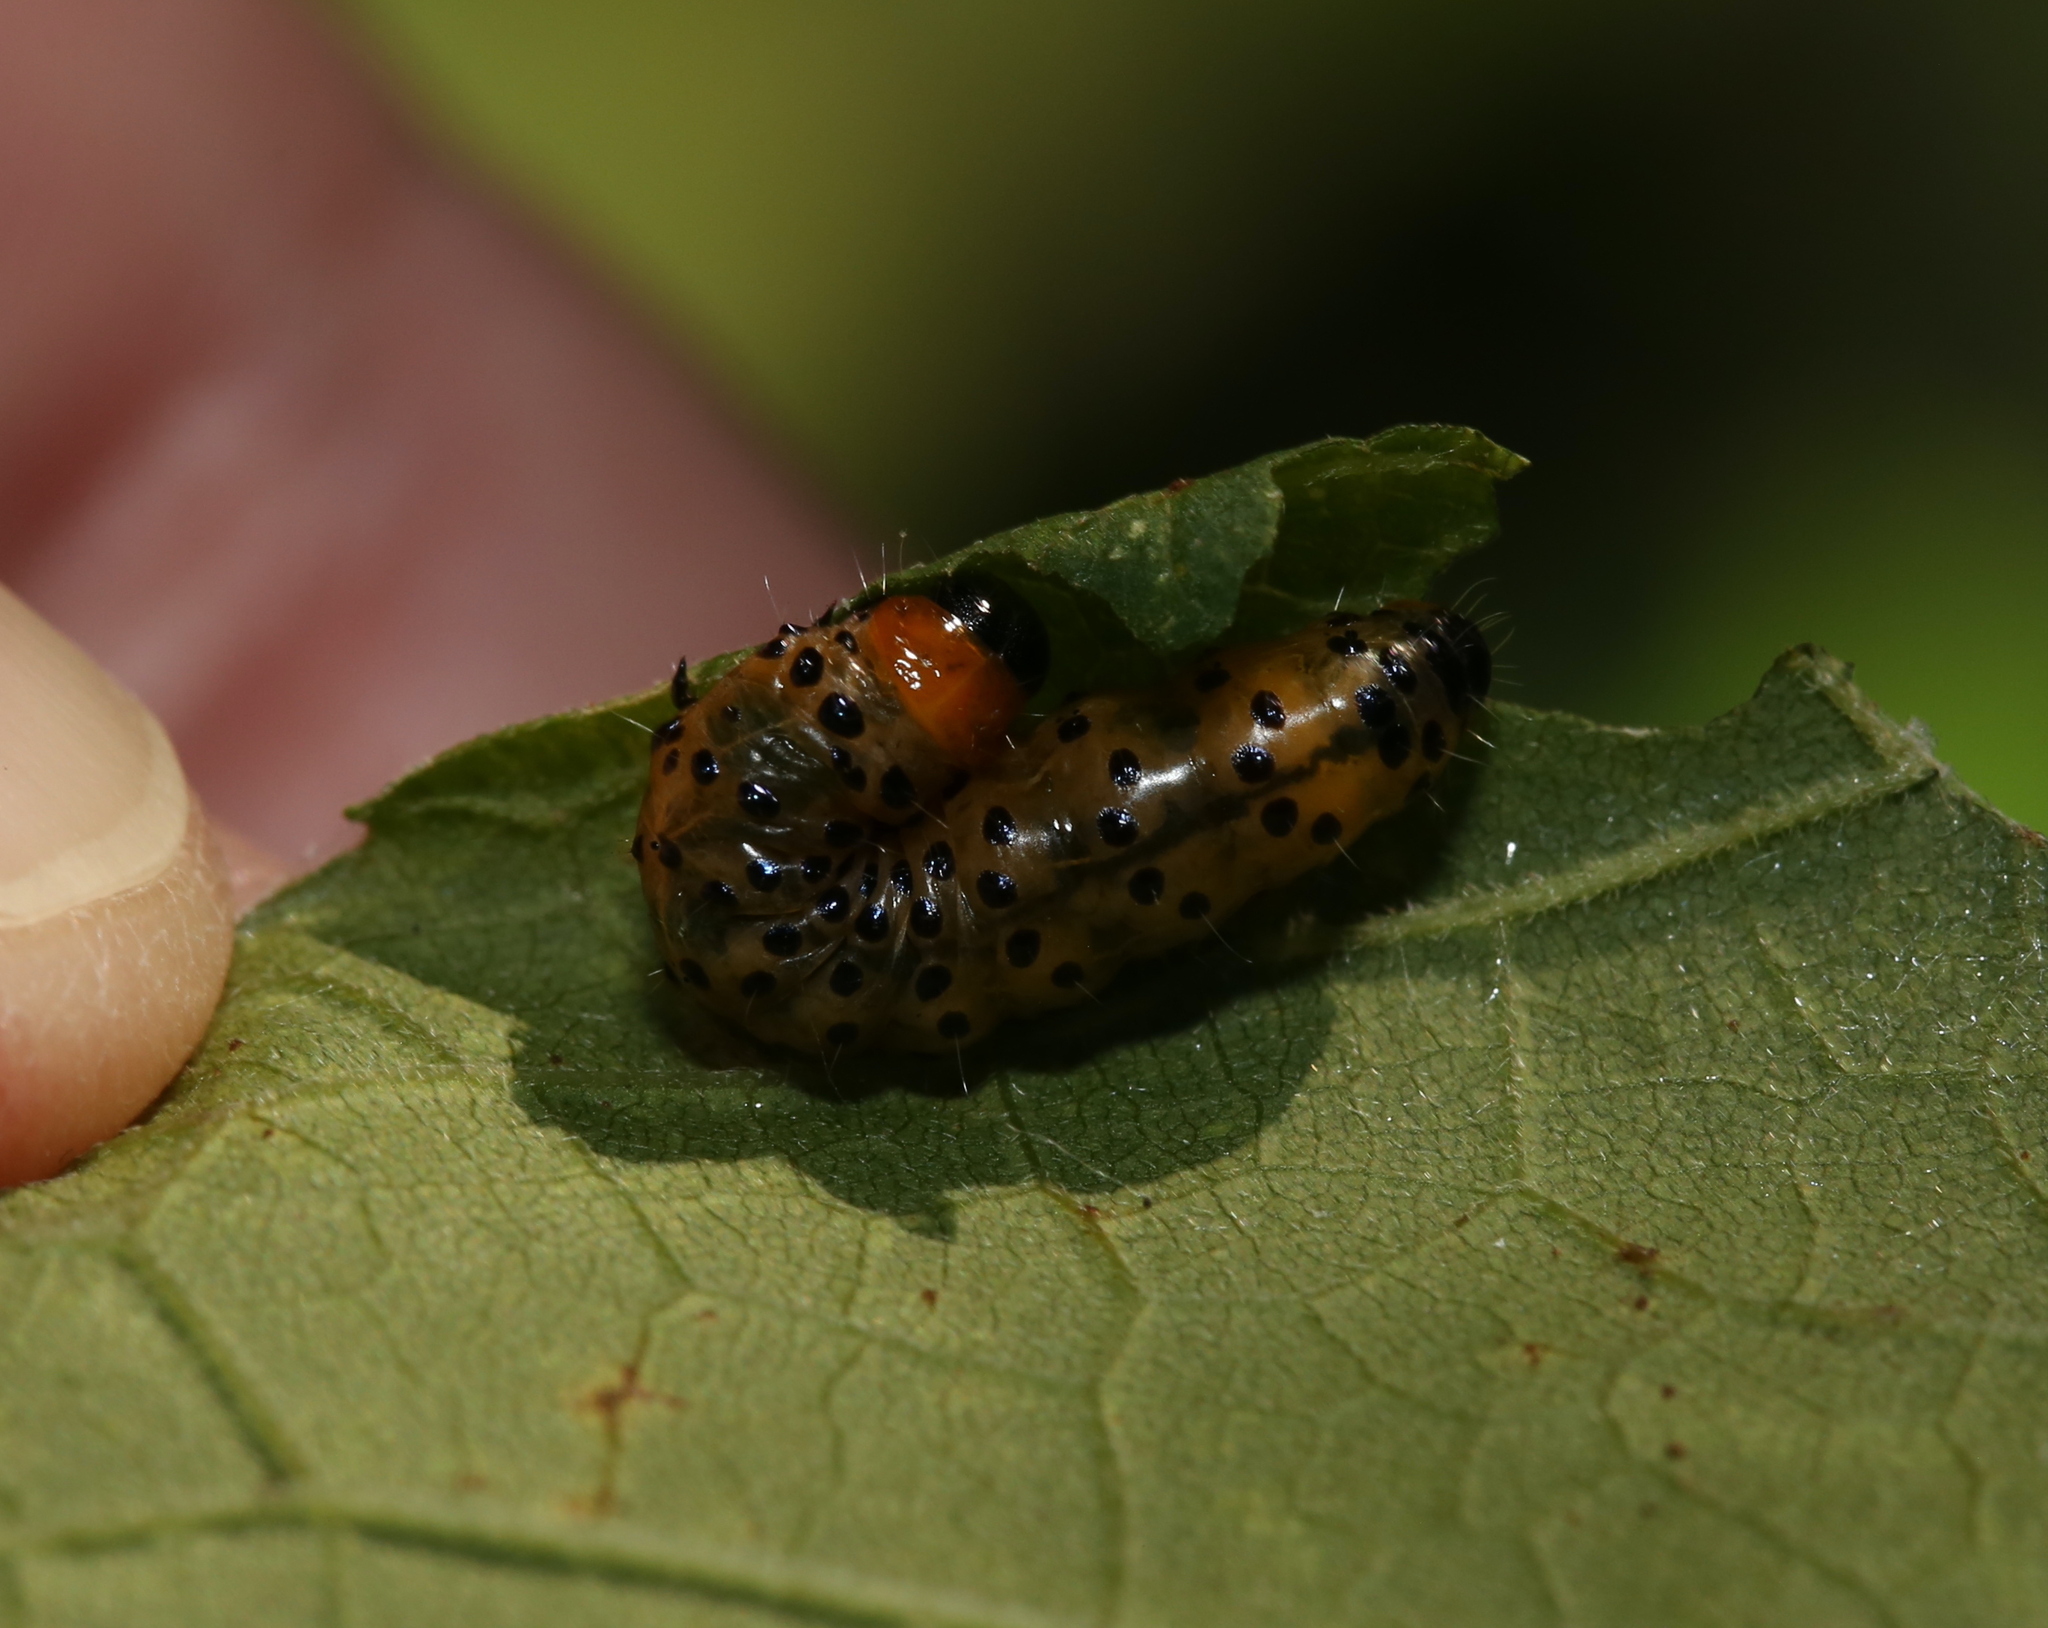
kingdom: Animalia
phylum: Arthropoda
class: Insecta
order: Lepidoptera
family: Thyrididae
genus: Dysodia
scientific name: Dysodia oculatana
